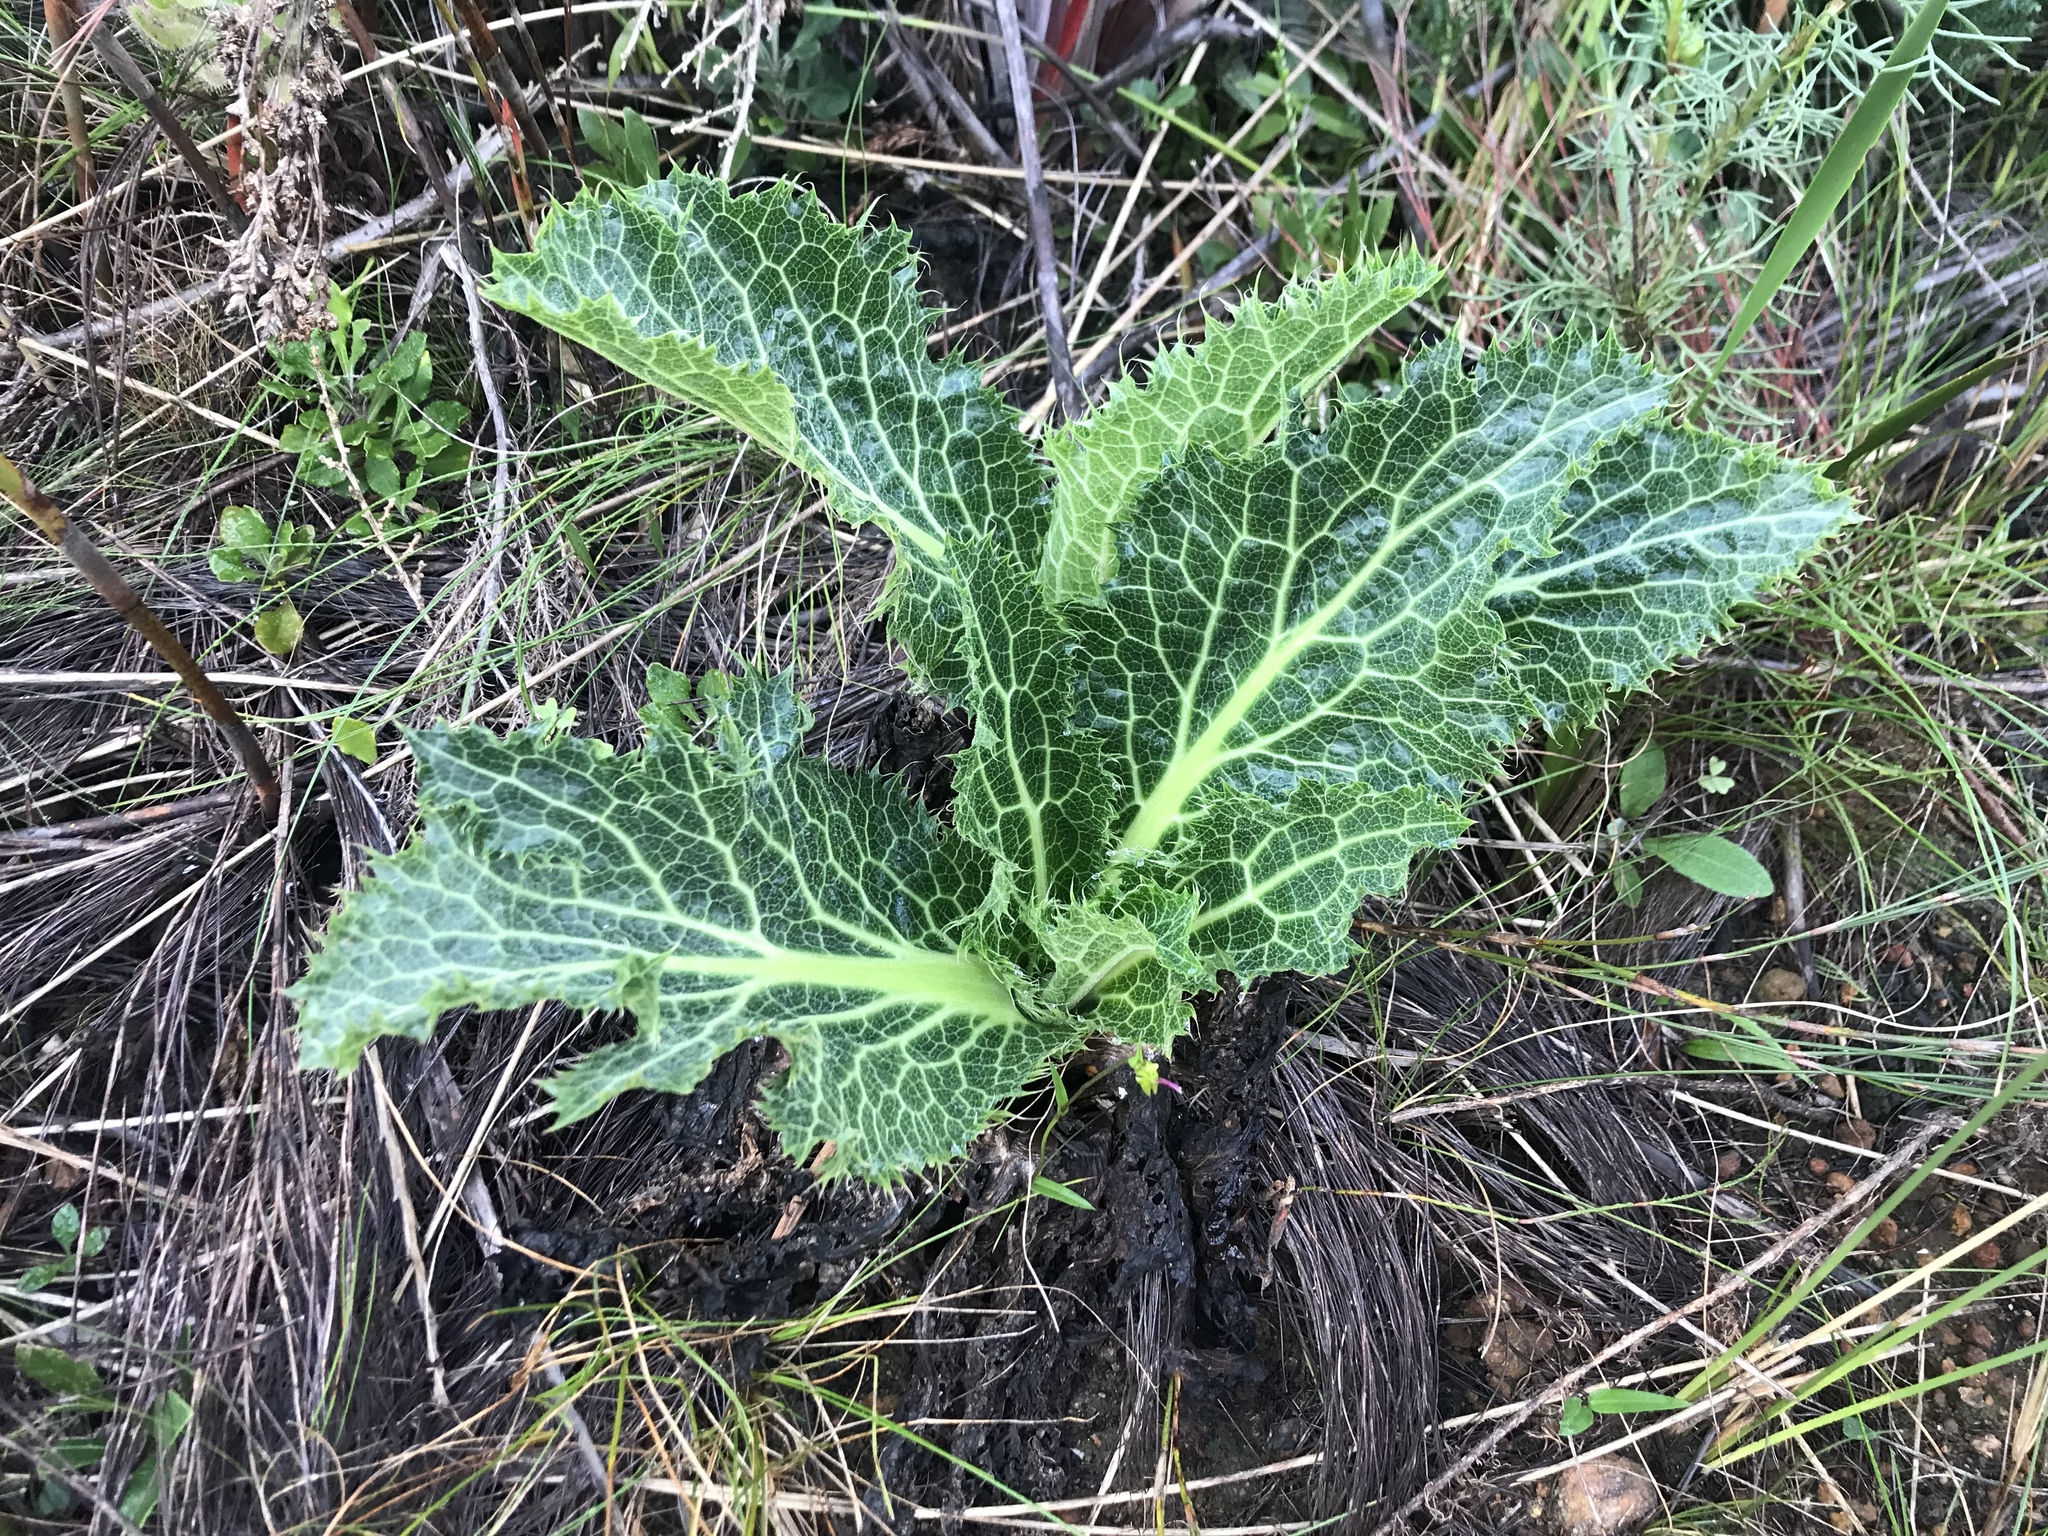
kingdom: Plantae
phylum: Tracheophyta
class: Magnoliopsida
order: Apiales
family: Apiaceae
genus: Lichtensteinia
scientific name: Lichtensteinia lacera
